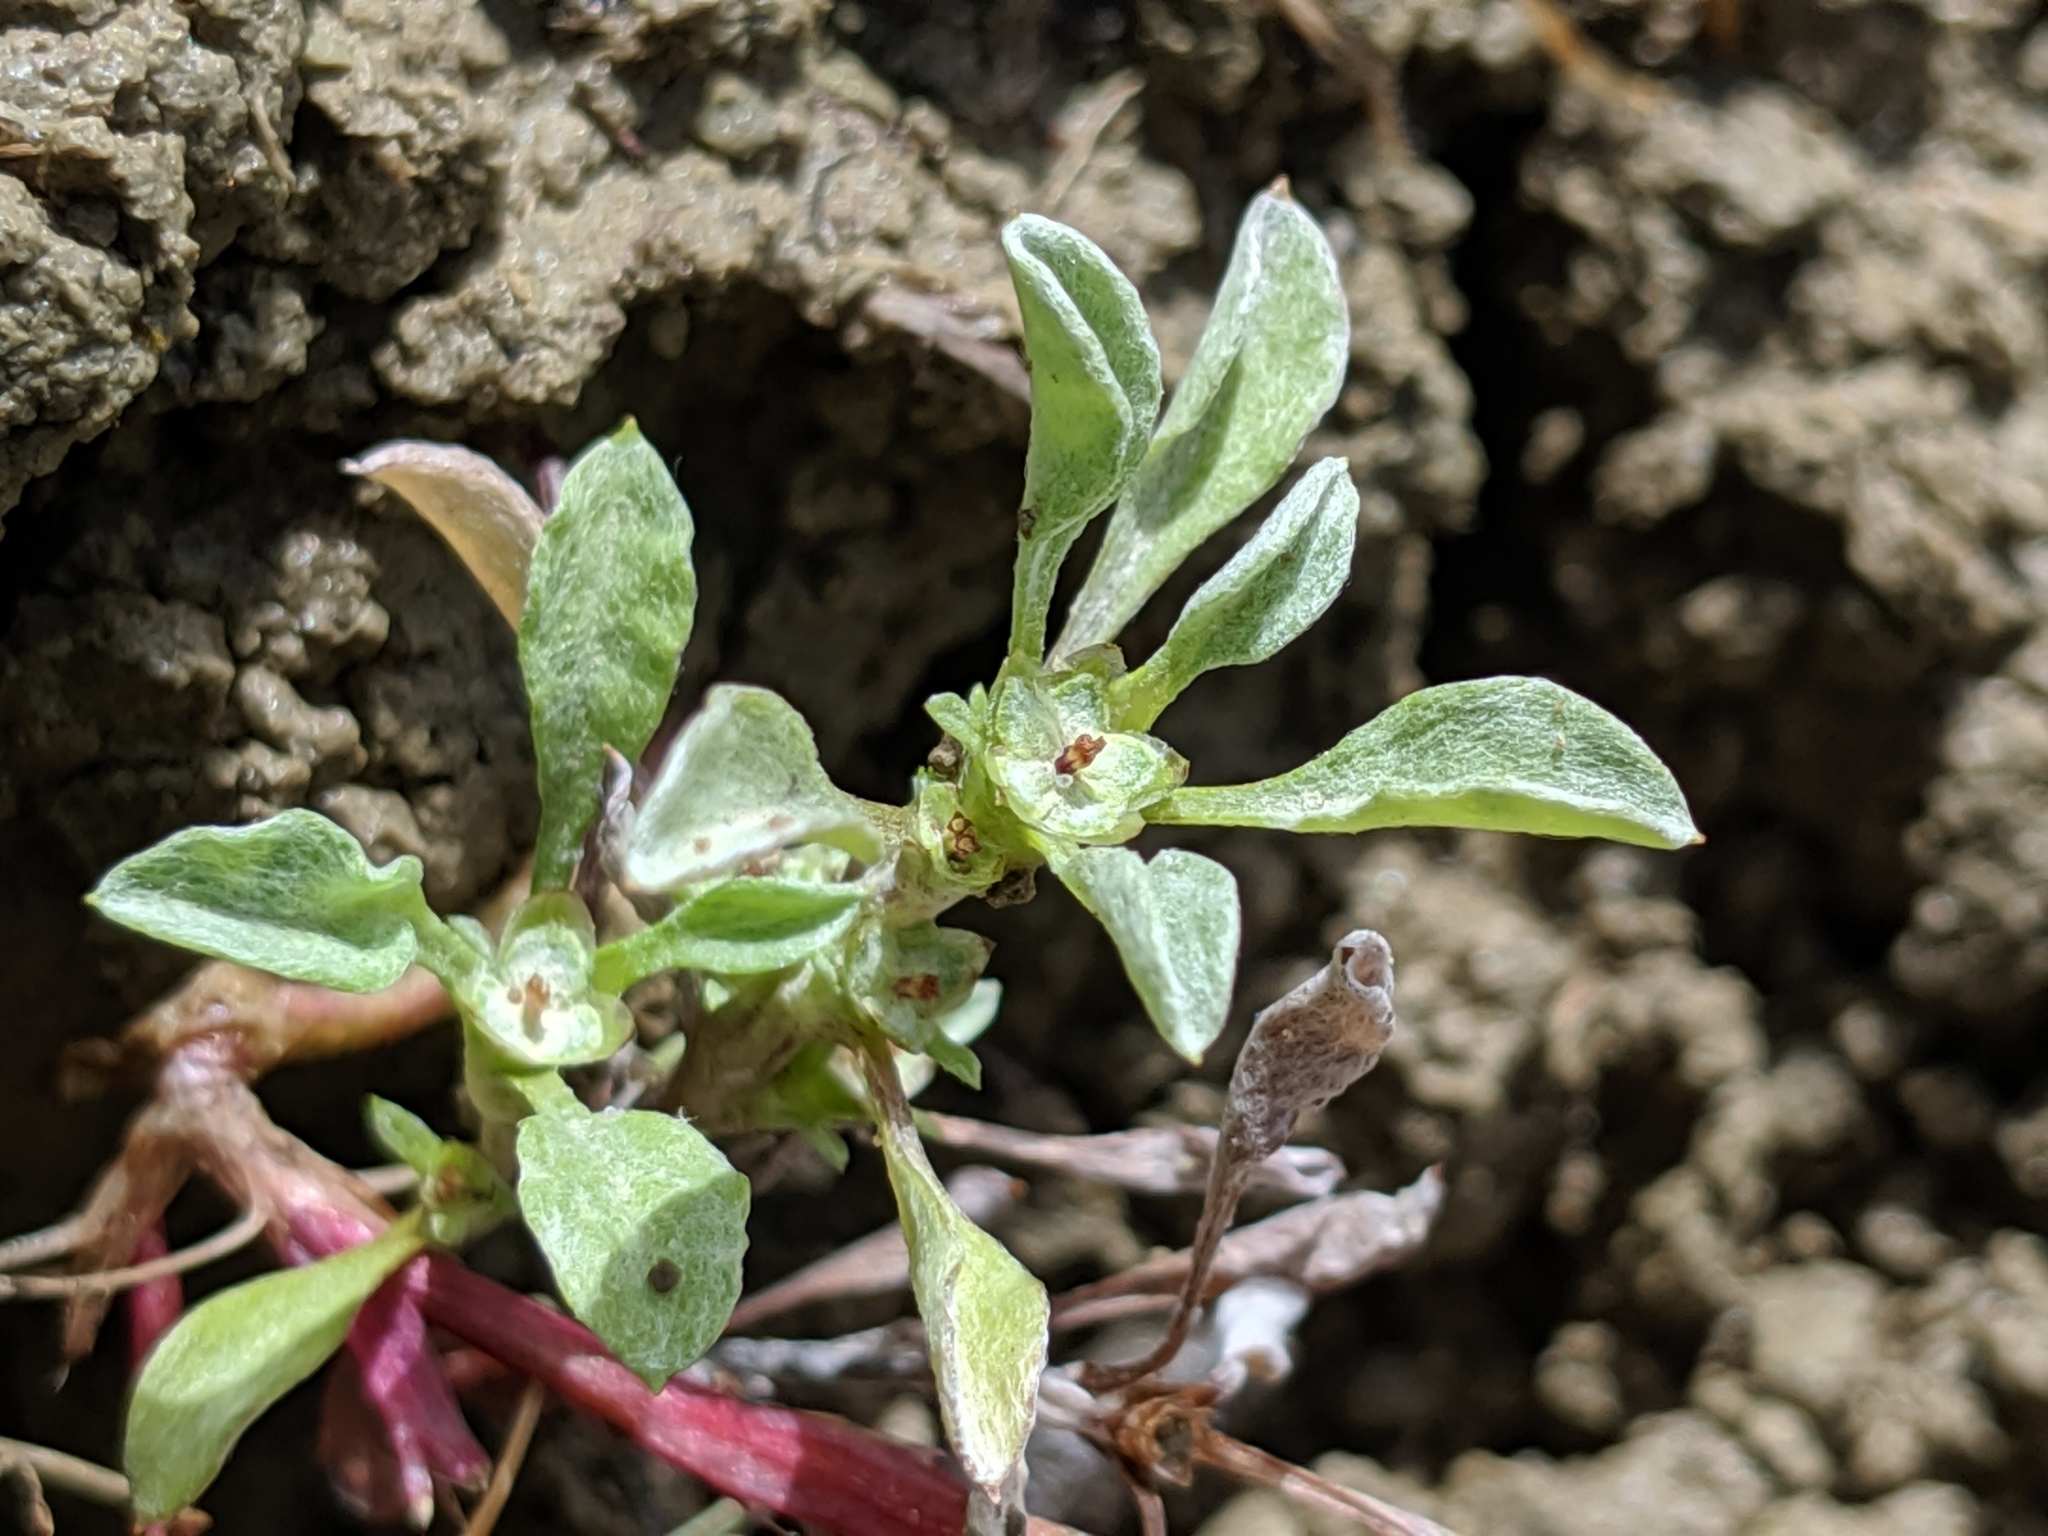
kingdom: Plantae
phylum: Tracheophyta
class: Magnoliopsida
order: Asterales
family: Asteraceae
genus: Hesperevax
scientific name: Hesperevax sparsiflora
